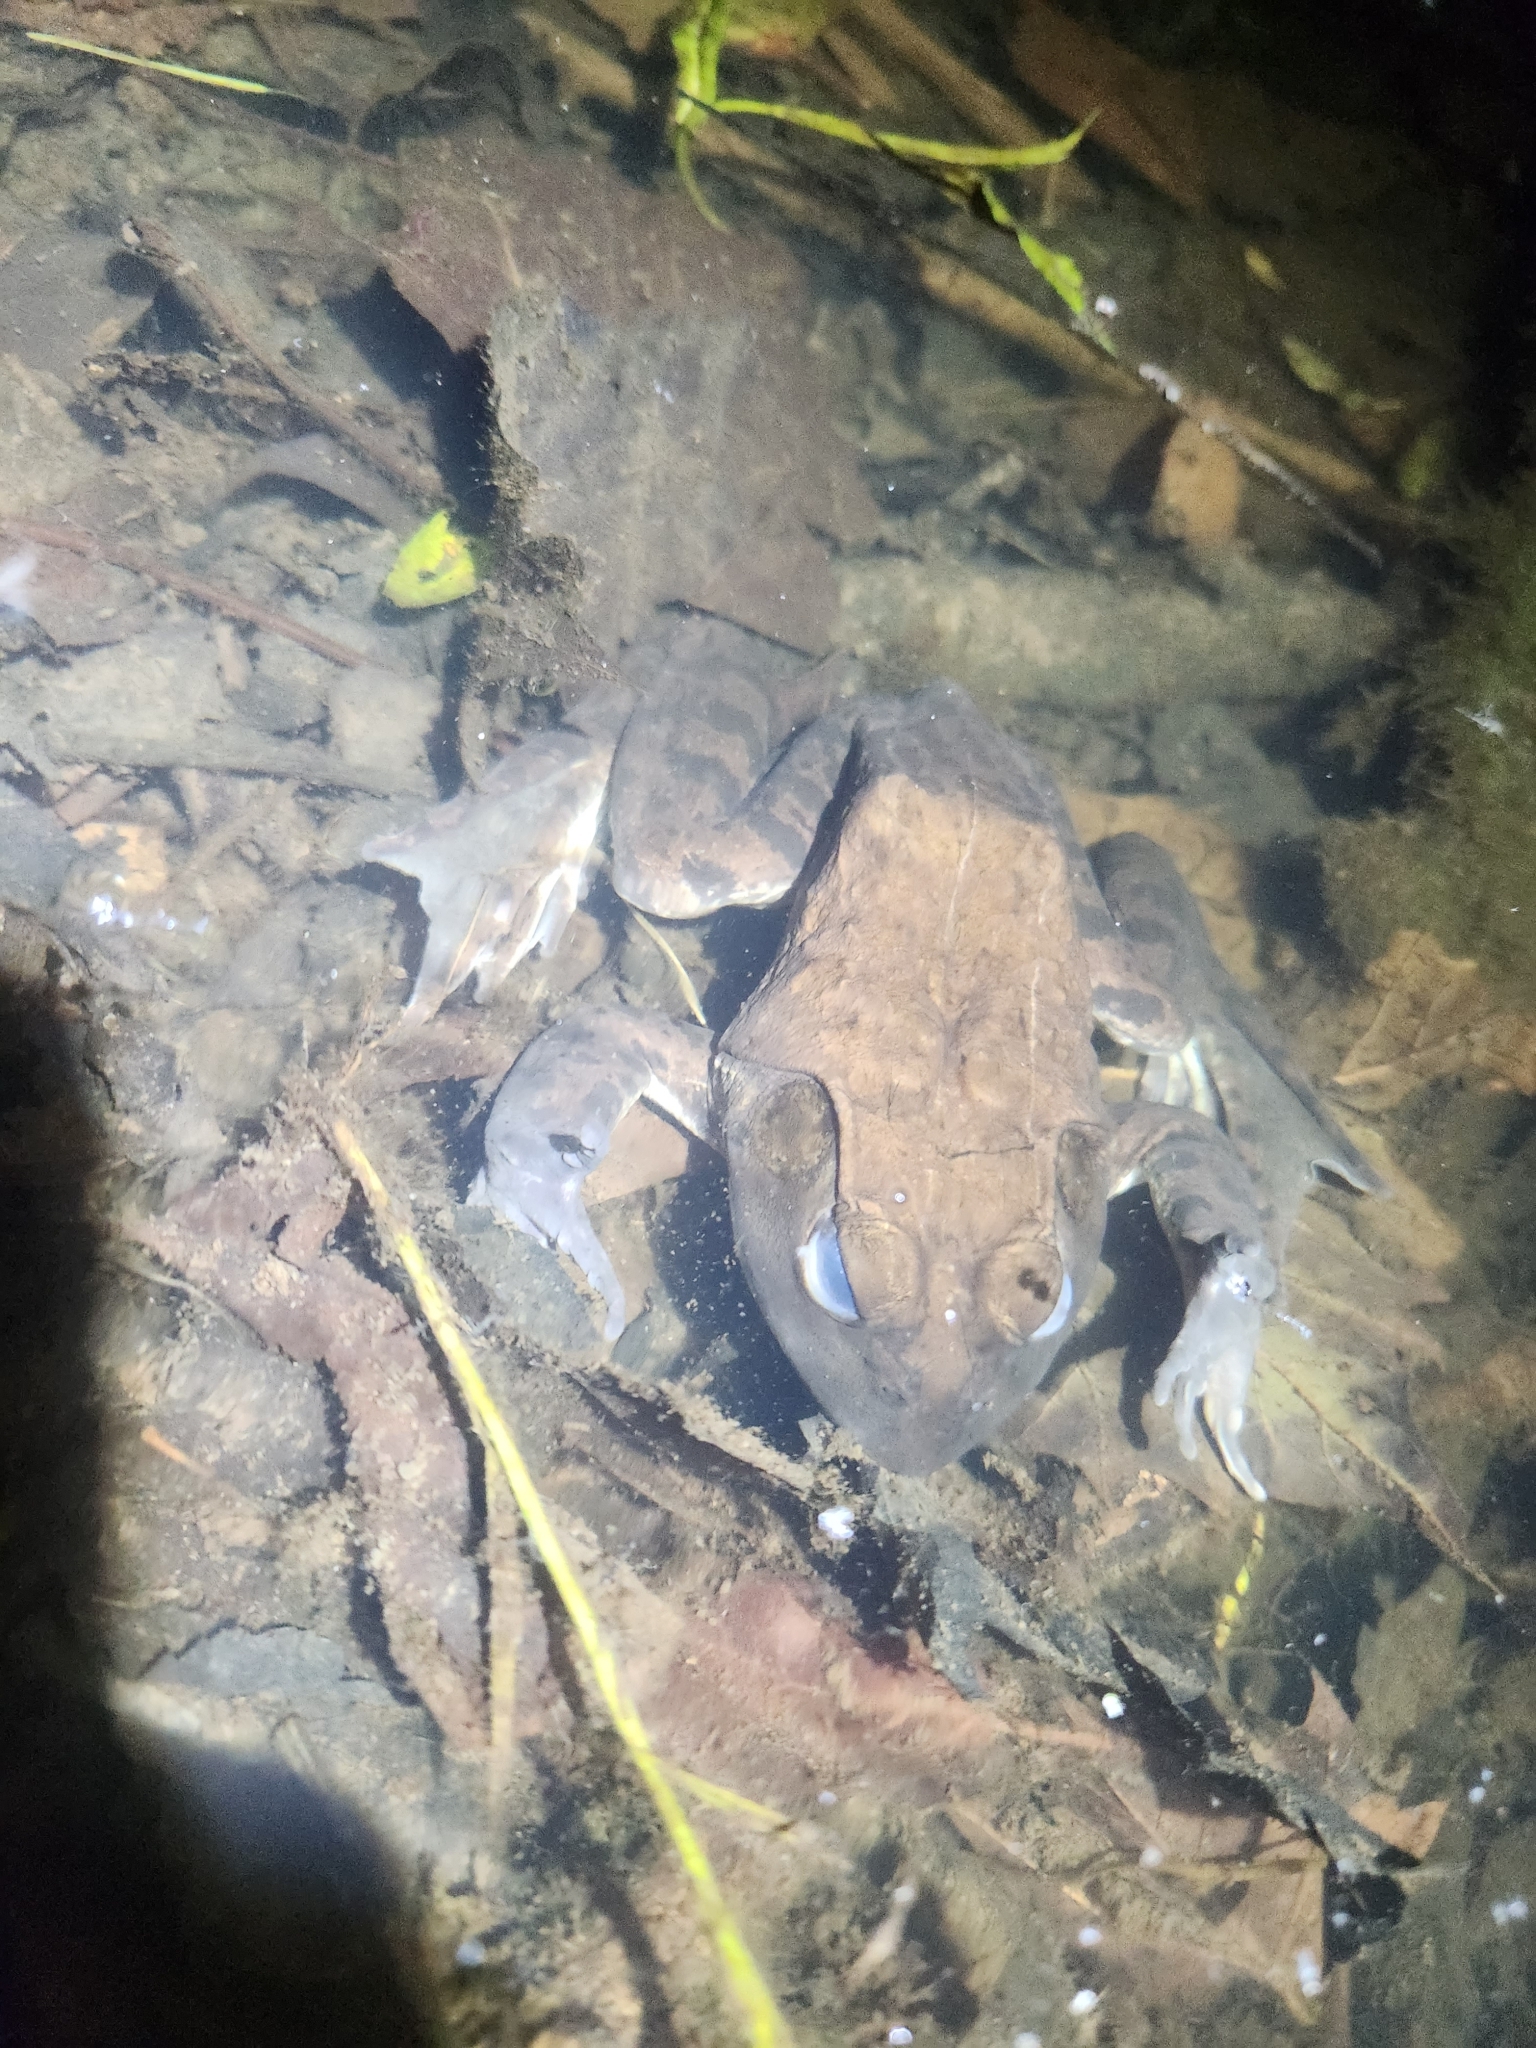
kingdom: Animalia
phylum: Chordata
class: Amphibia
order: Anura
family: Ranidae
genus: Lithobates
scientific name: Lithobates catesbeianus
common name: American bullfrog
